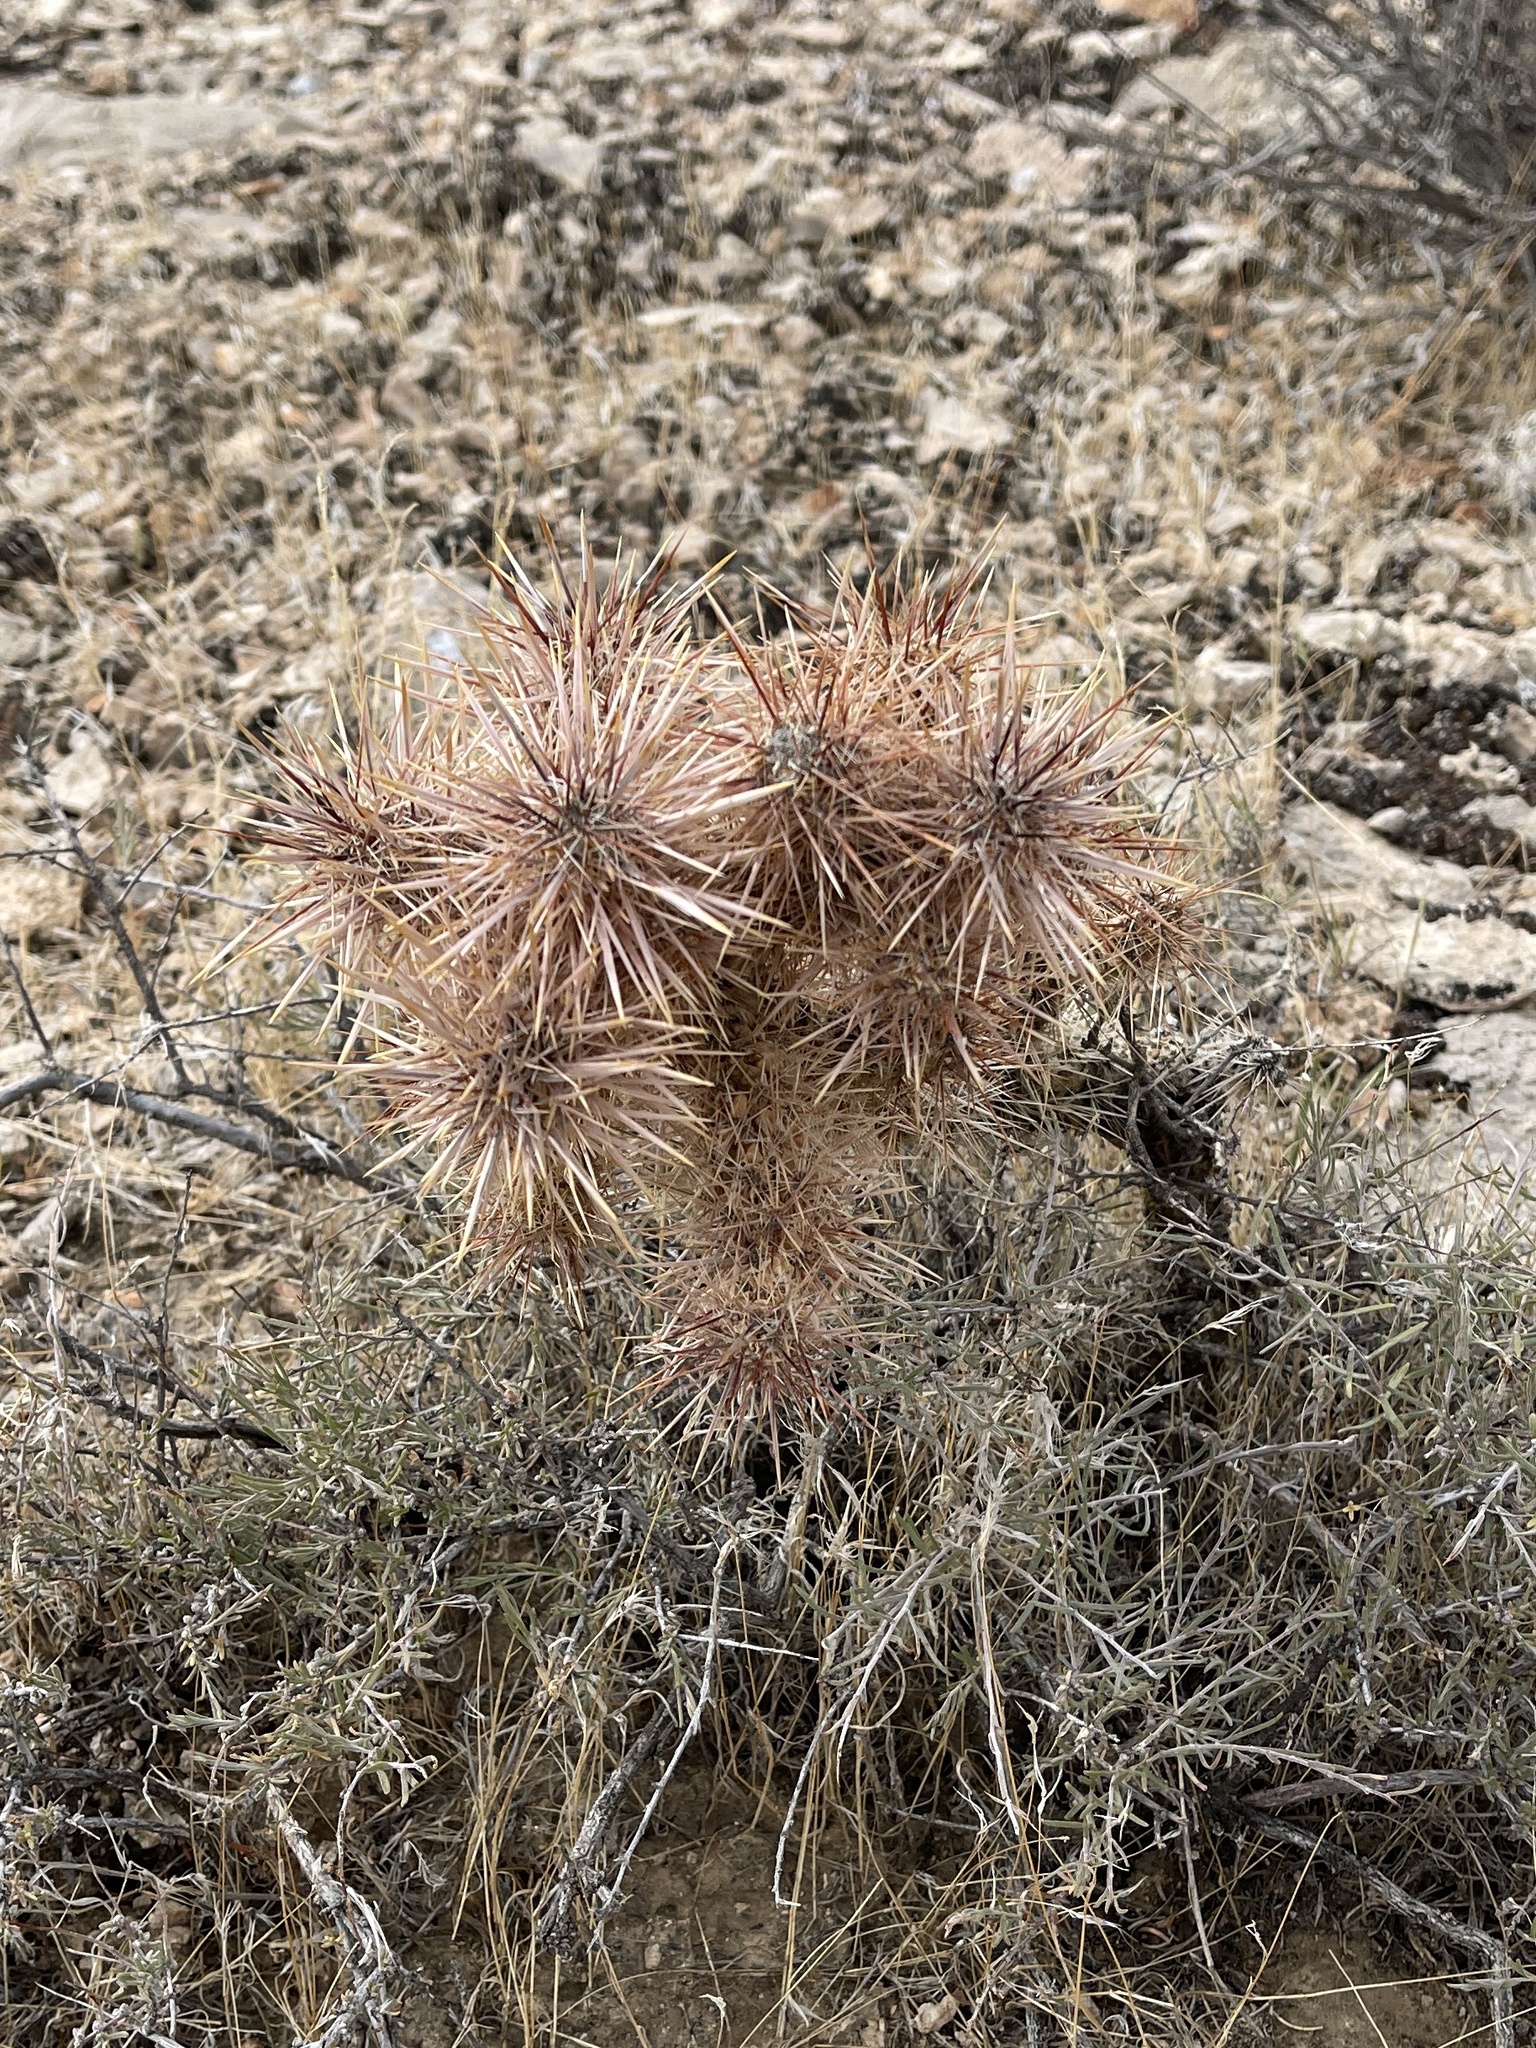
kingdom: Plantae
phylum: Tracheophyta
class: Magnoliopsida
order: Caryophyllales
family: Cactaceae
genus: Cylindropuntia
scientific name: Cylindropuntia echinocarpa
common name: Ground cholla
